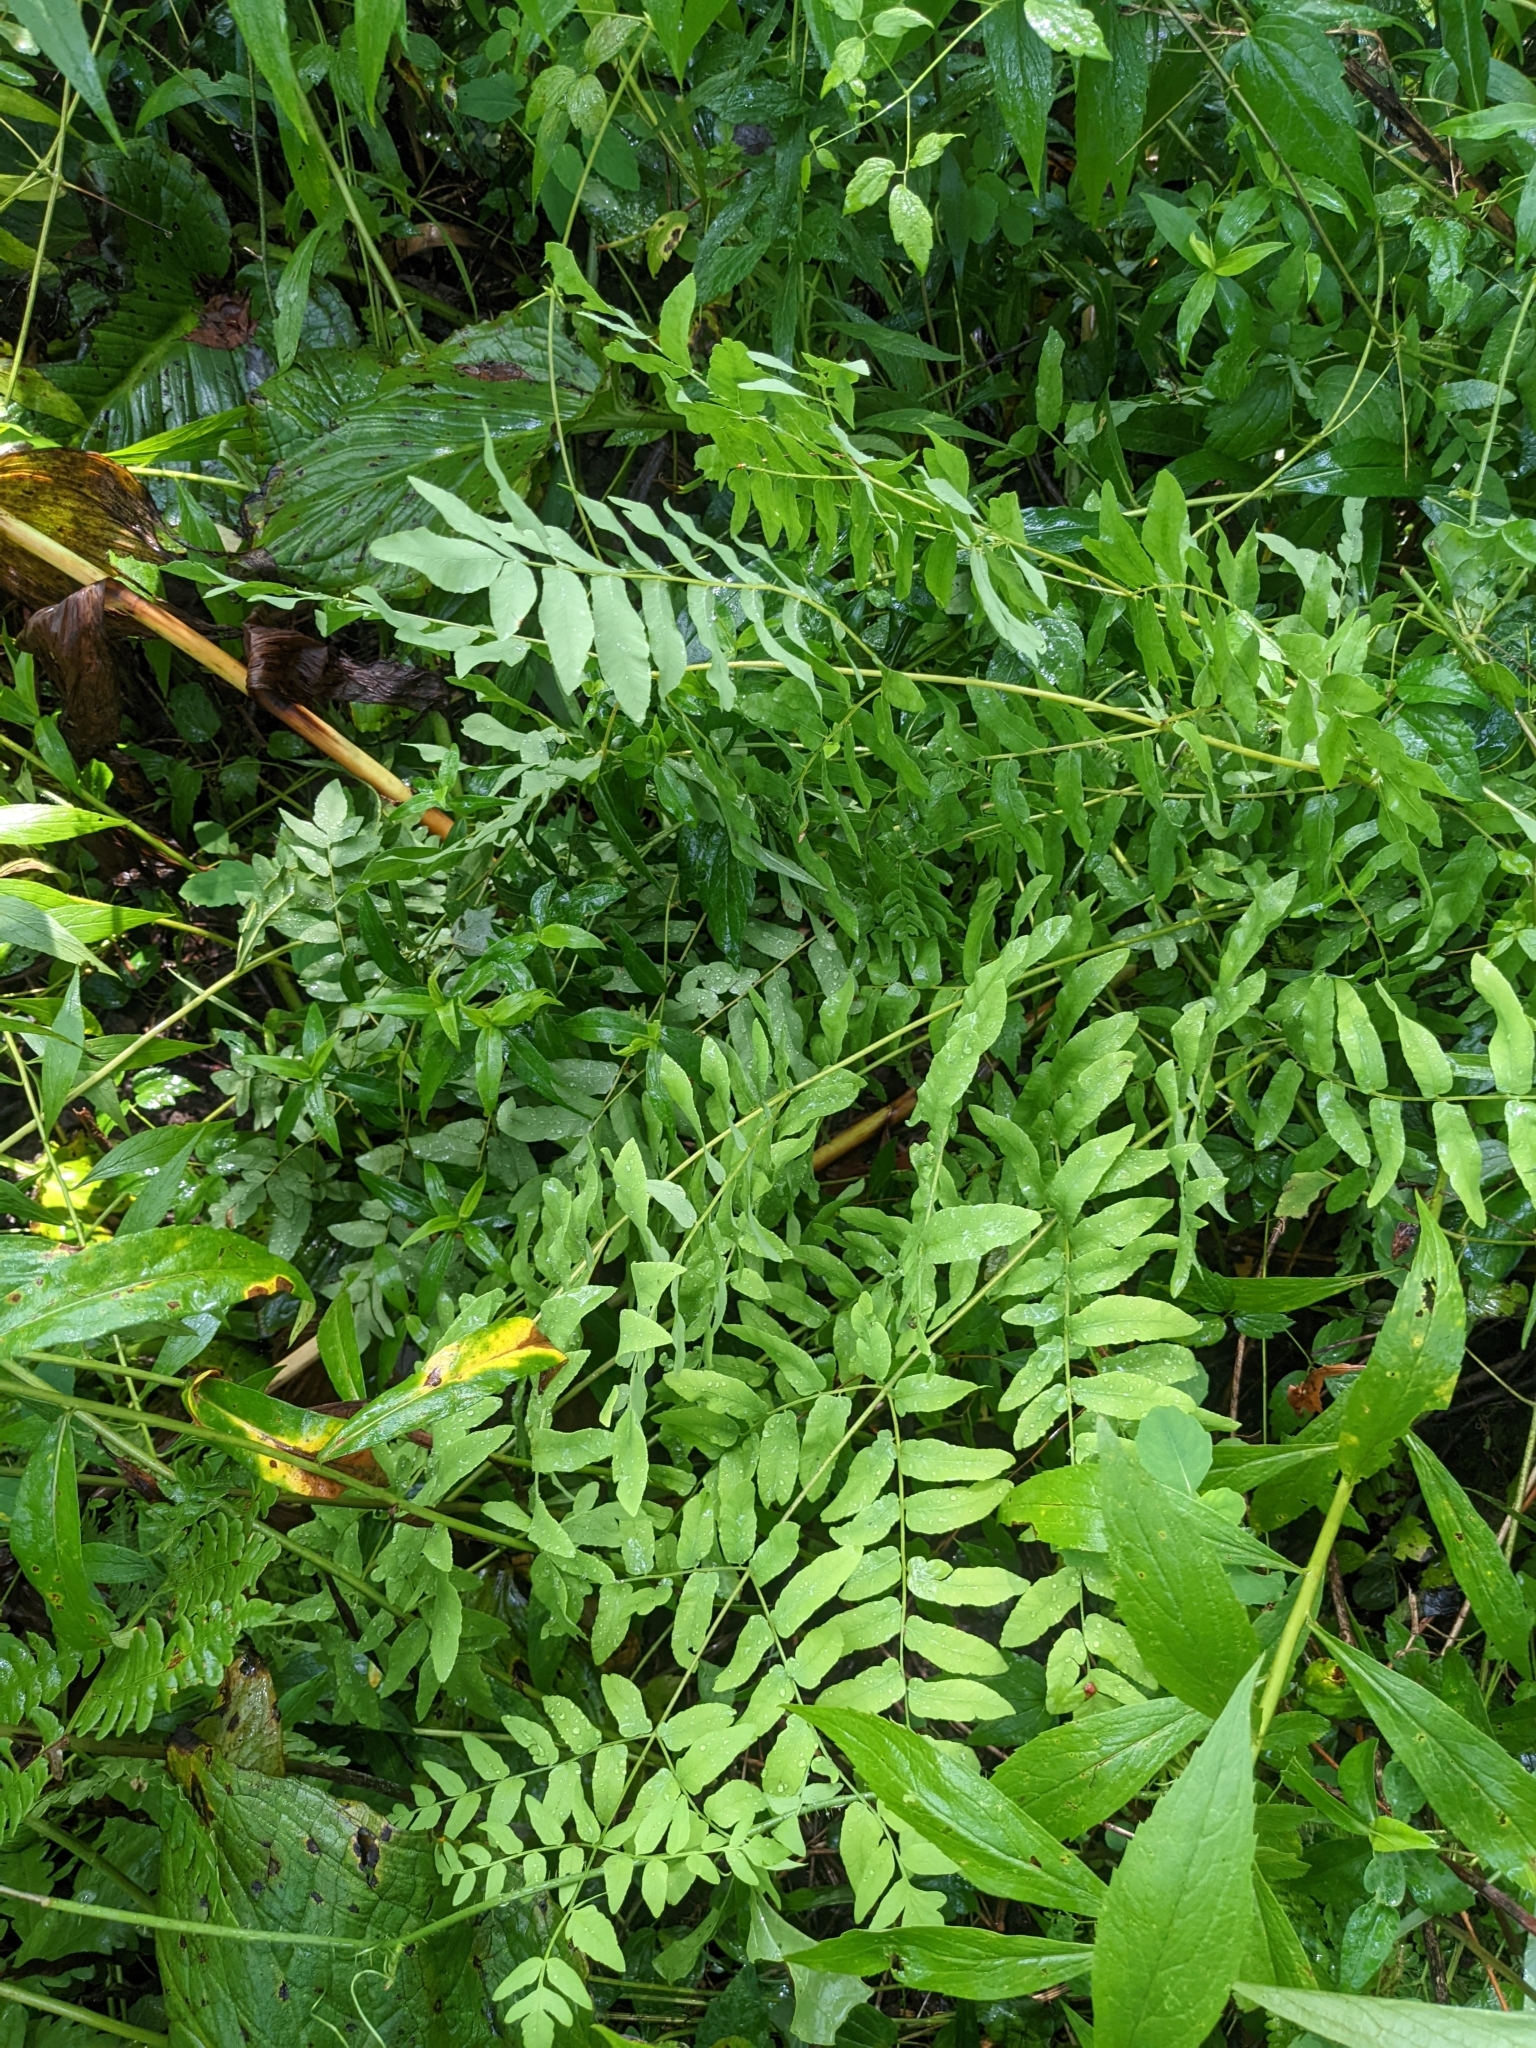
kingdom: Plantae
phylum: Tracheophyta
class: Polypodiopsida
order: Osmundales
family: Osmundaceae
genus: Osmunda
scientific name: Osmunda spectabilis
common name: American royal fern
